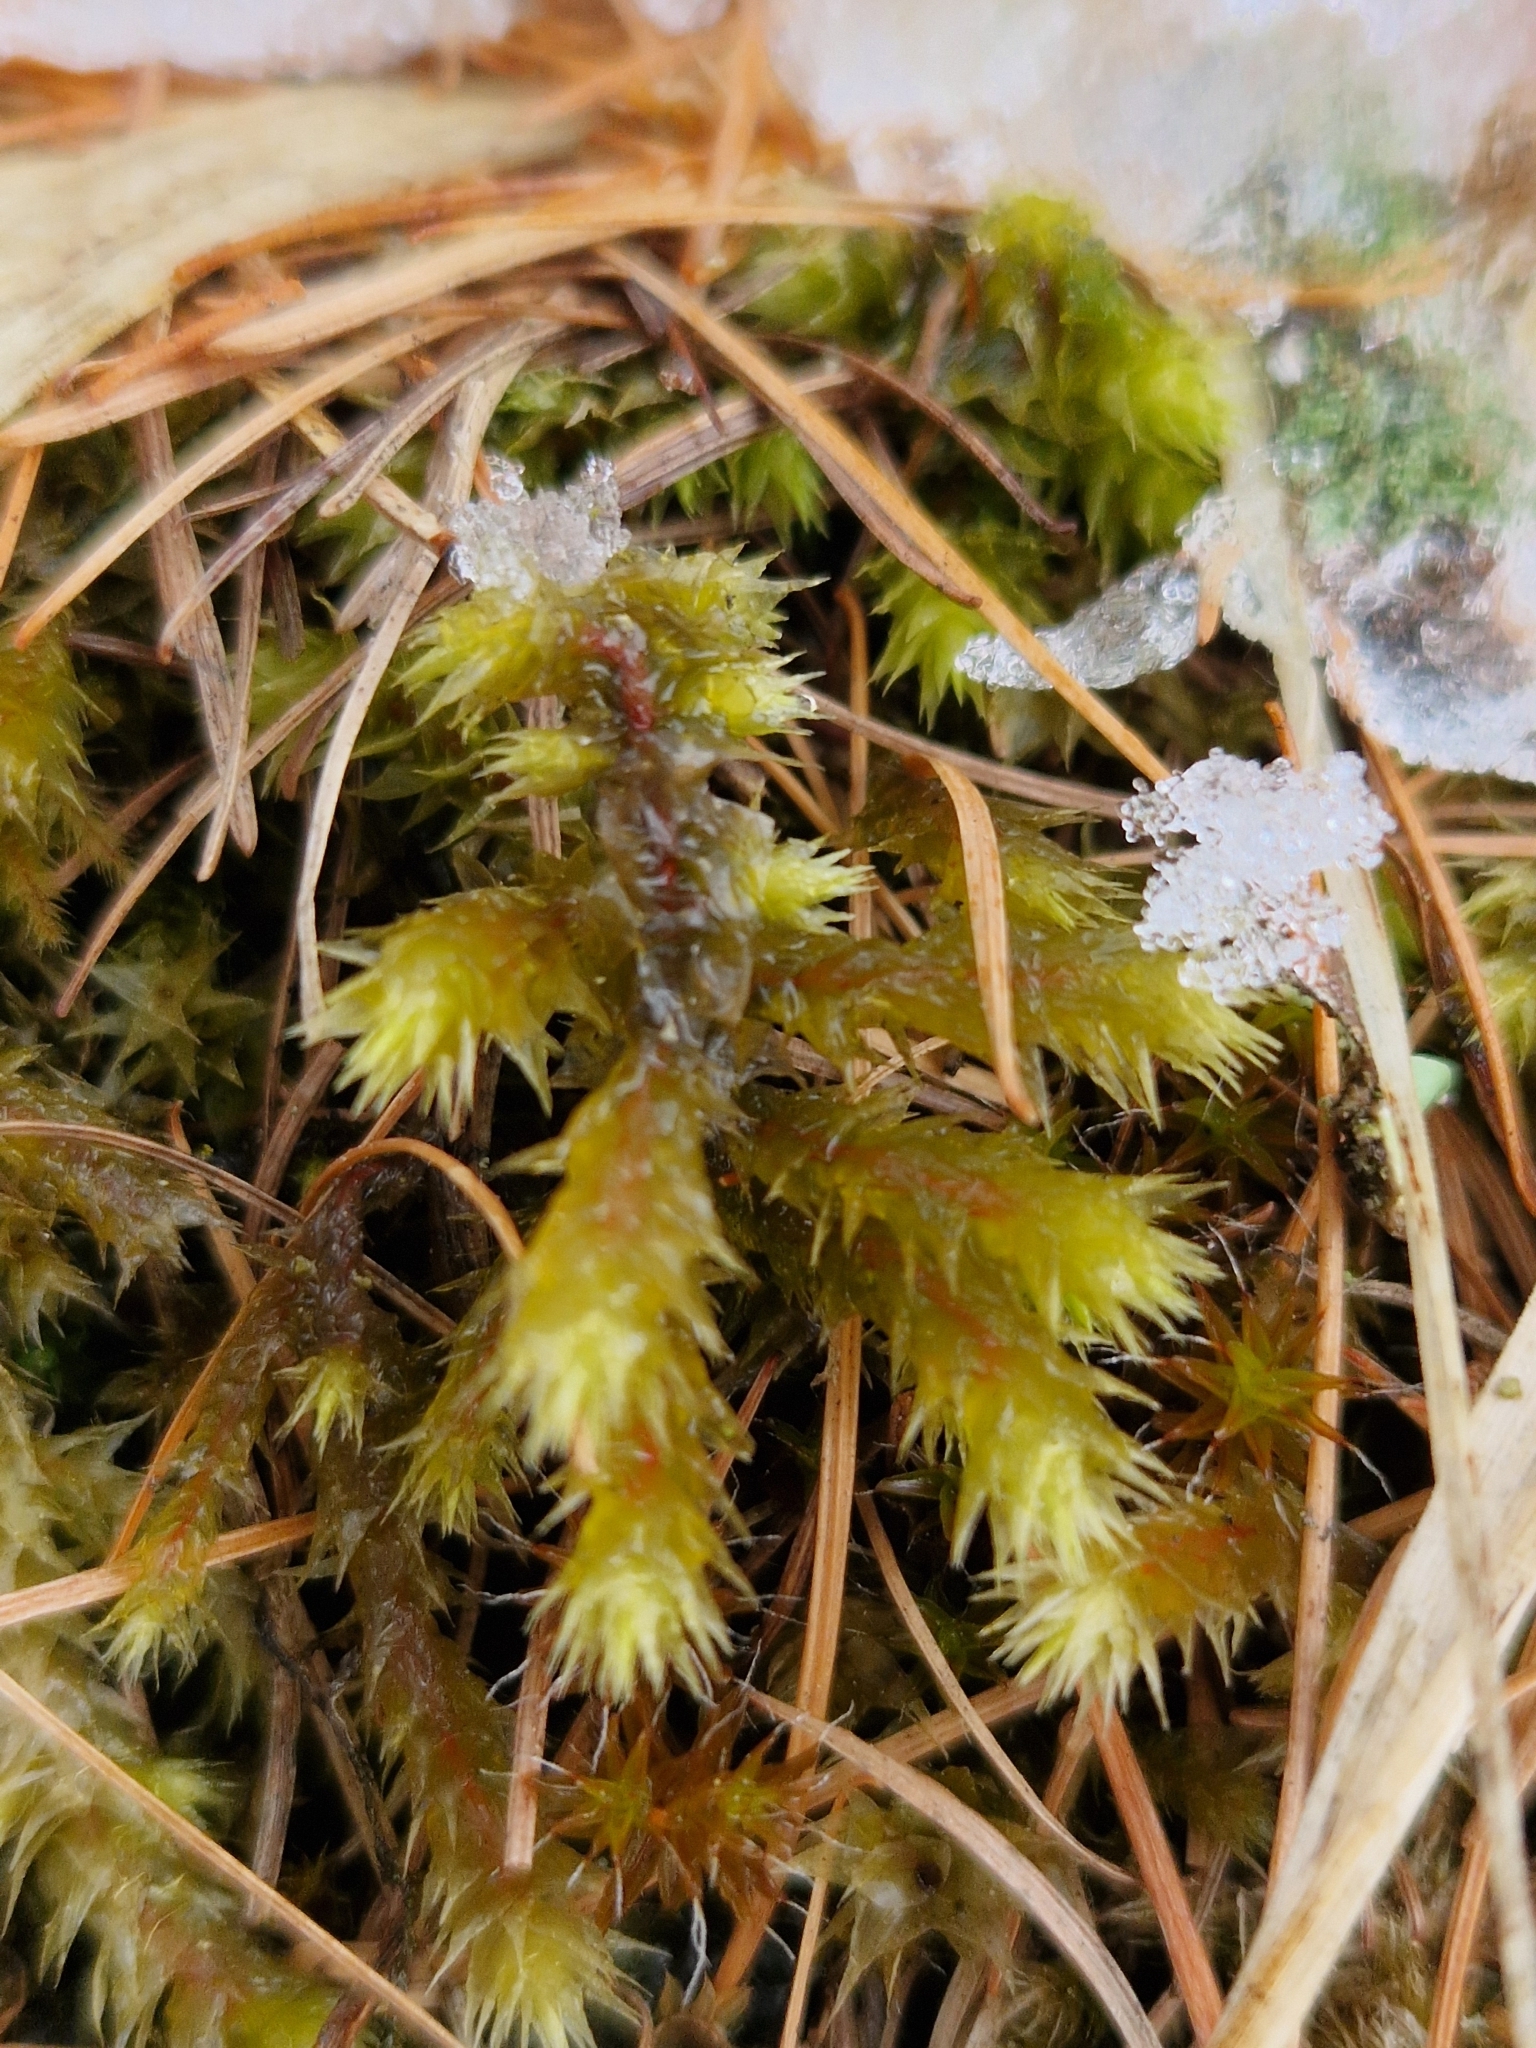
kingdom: Plantae
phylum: Bryophyta
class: Bryopsida
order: Hypnales
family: Hylocomiaceae
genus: Hylocomiadelphus
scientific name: Hylocomiadelphus triquetrus
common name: Rough goose neck moss
